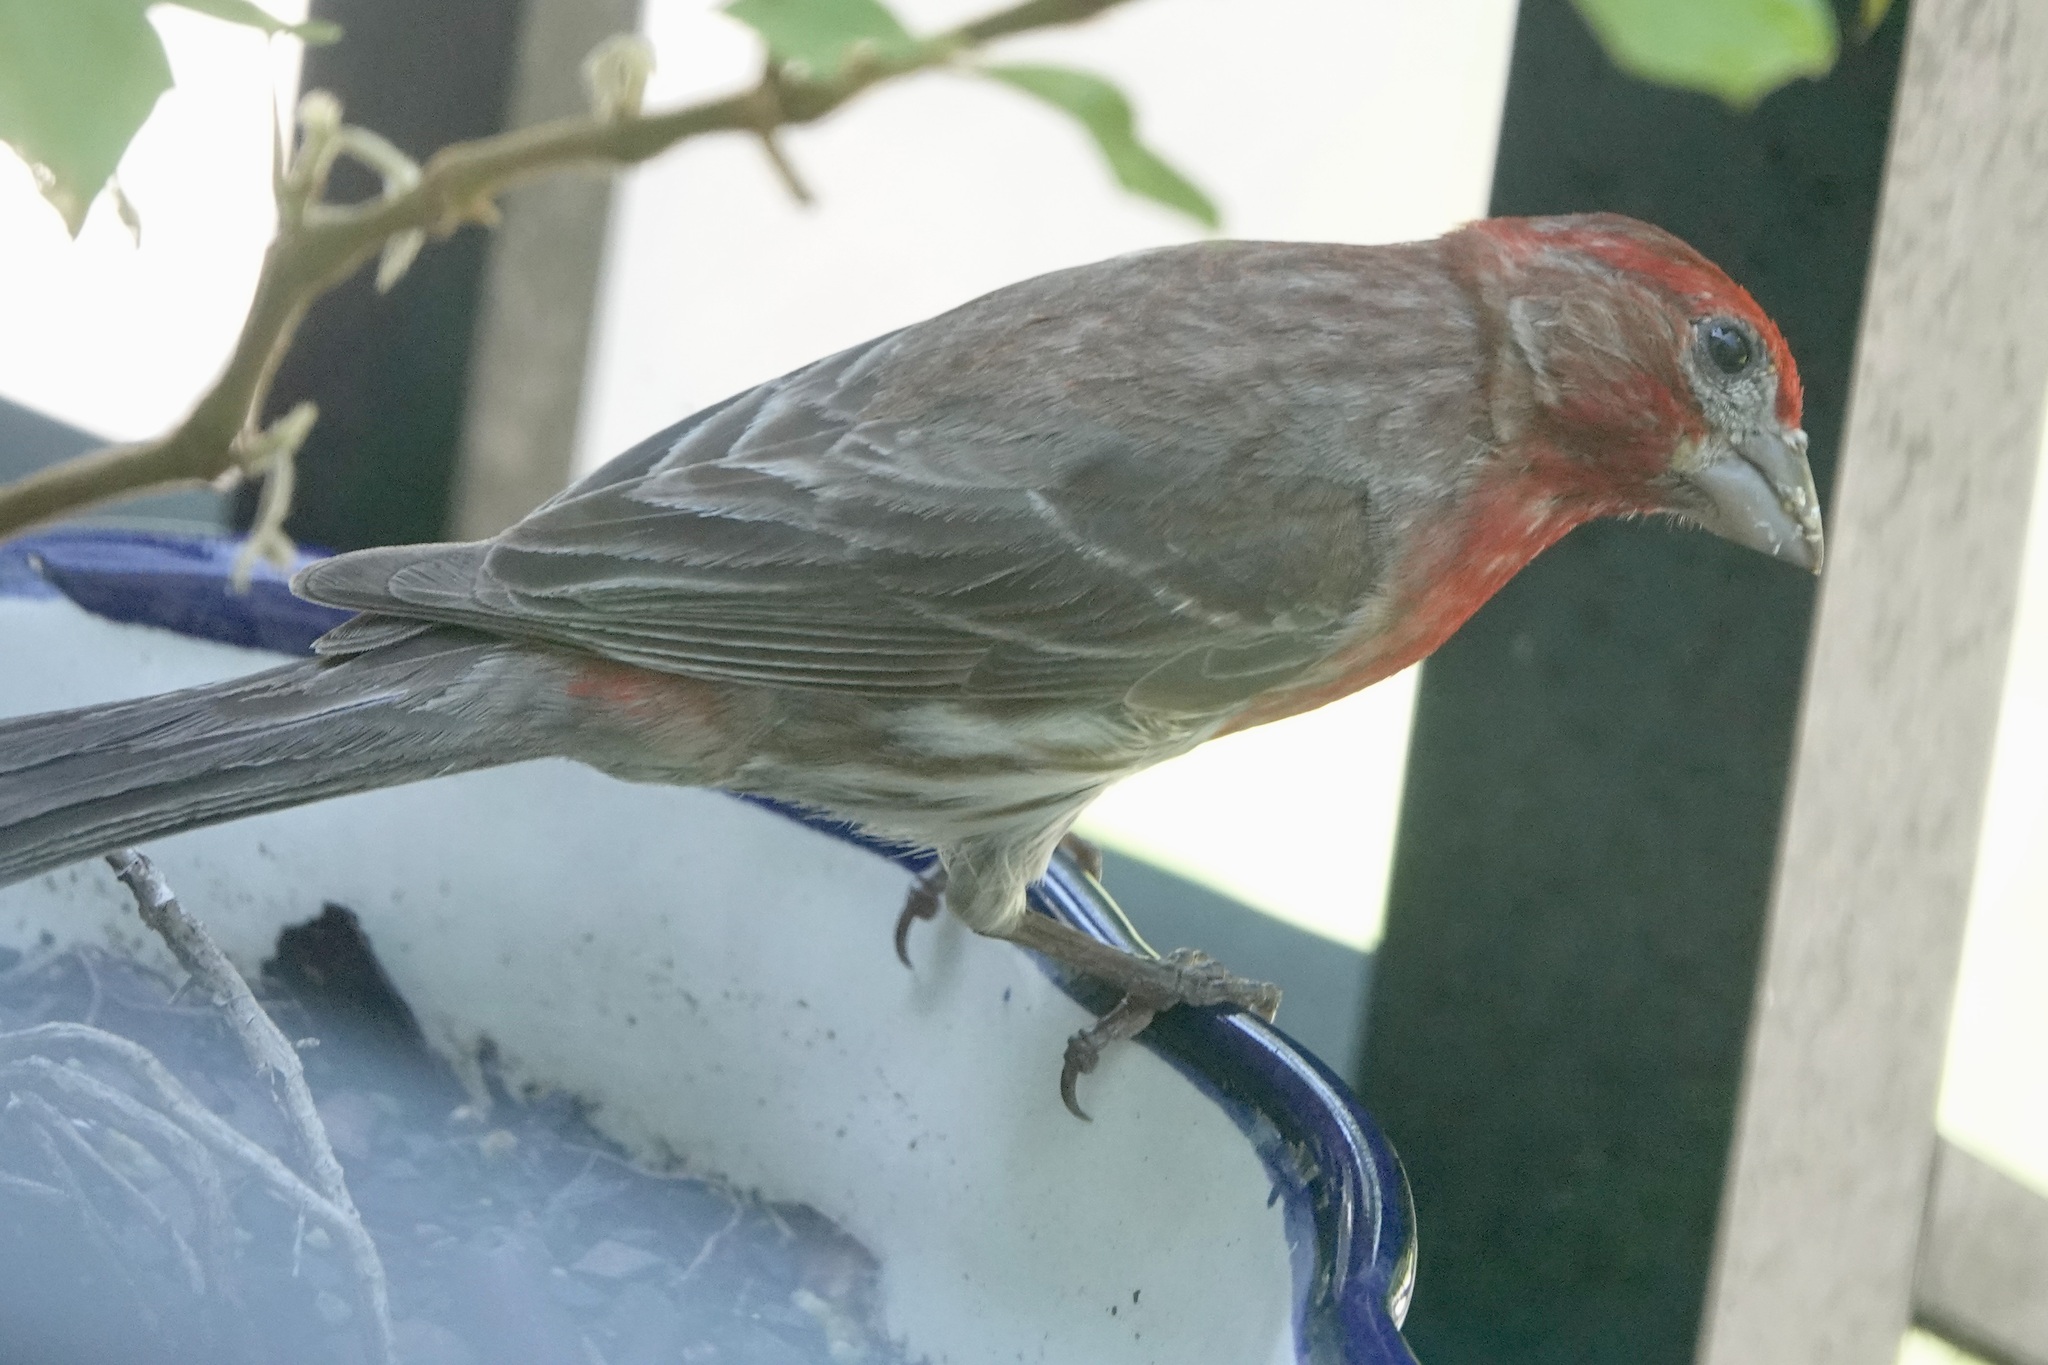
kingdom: Animalia
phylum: Chordata
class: Aves
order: Passeriformes
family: Fringillidae
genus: Haemorhous
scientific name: Haemorhous mexicanus
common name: House finch
